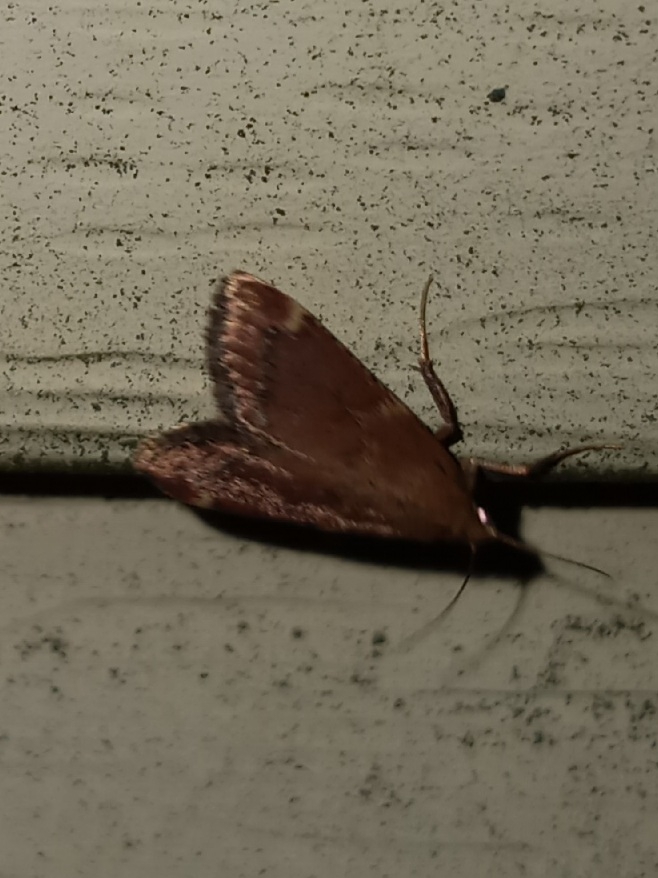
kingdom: Animalia
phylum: Arthropoda
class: Insecta
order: Lepidoptera
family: Pyralidae
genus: Hypsopygia
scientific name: Hypsopygia intermedialis
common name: Red-shawled moth
